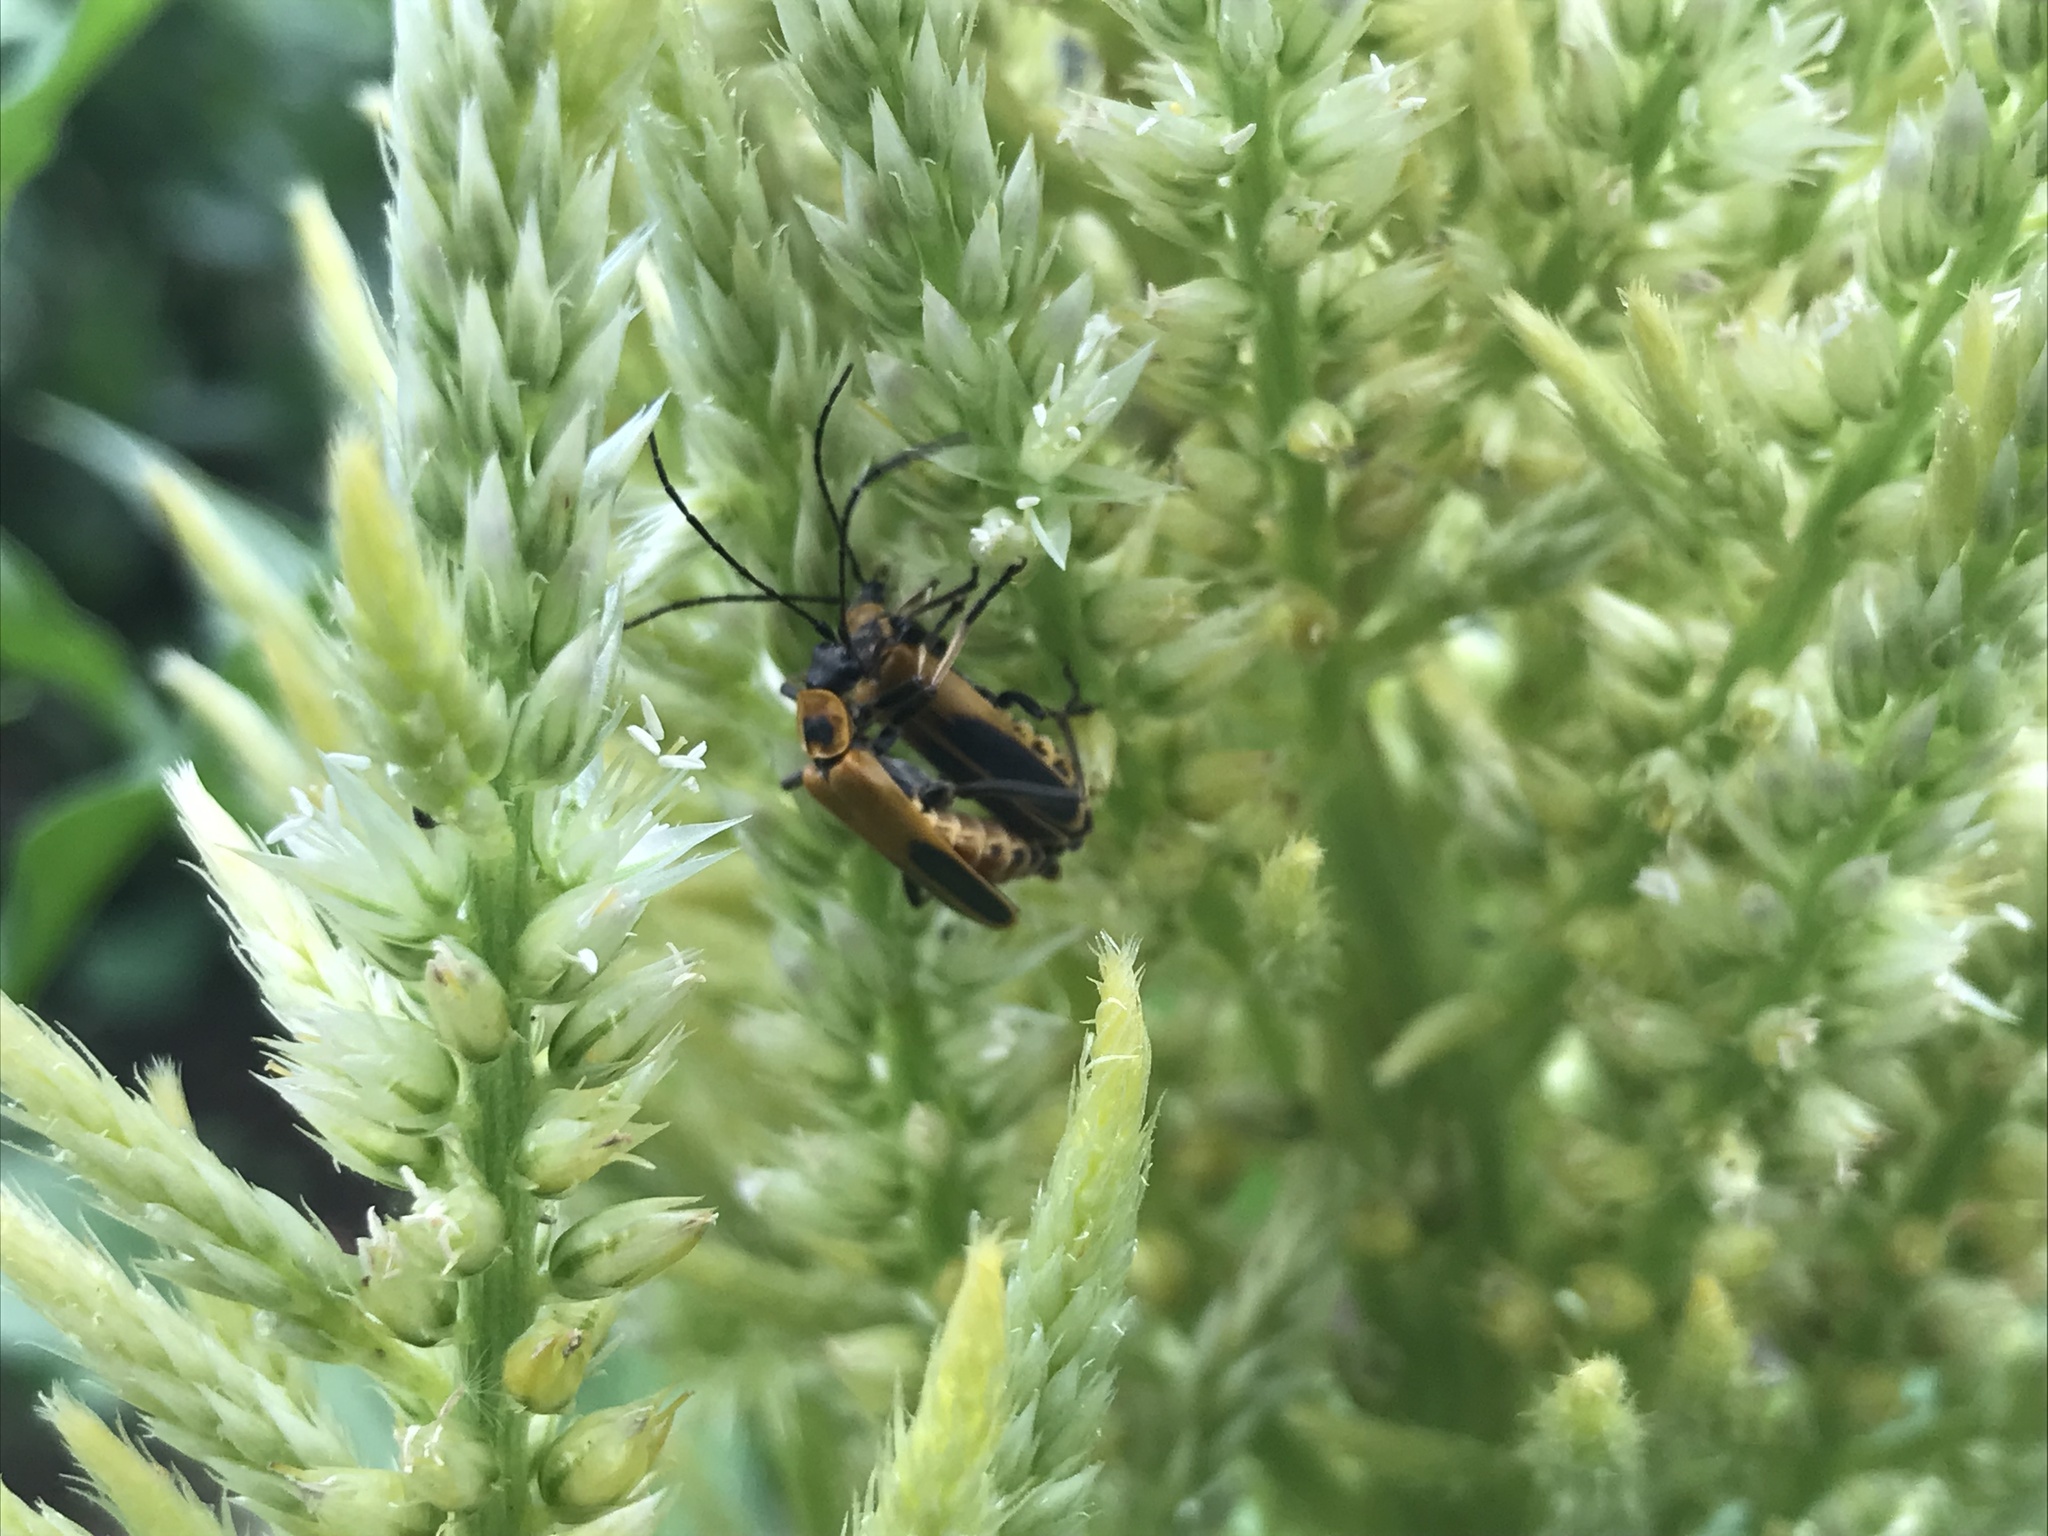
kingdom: Animalia
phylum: Arthropoda
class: Insecta
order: Coleoptera
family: Cantharidae
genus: Chauliognathus
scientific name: Chauliognathus pensylvanicus
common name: Goldenrod soldier beetle
